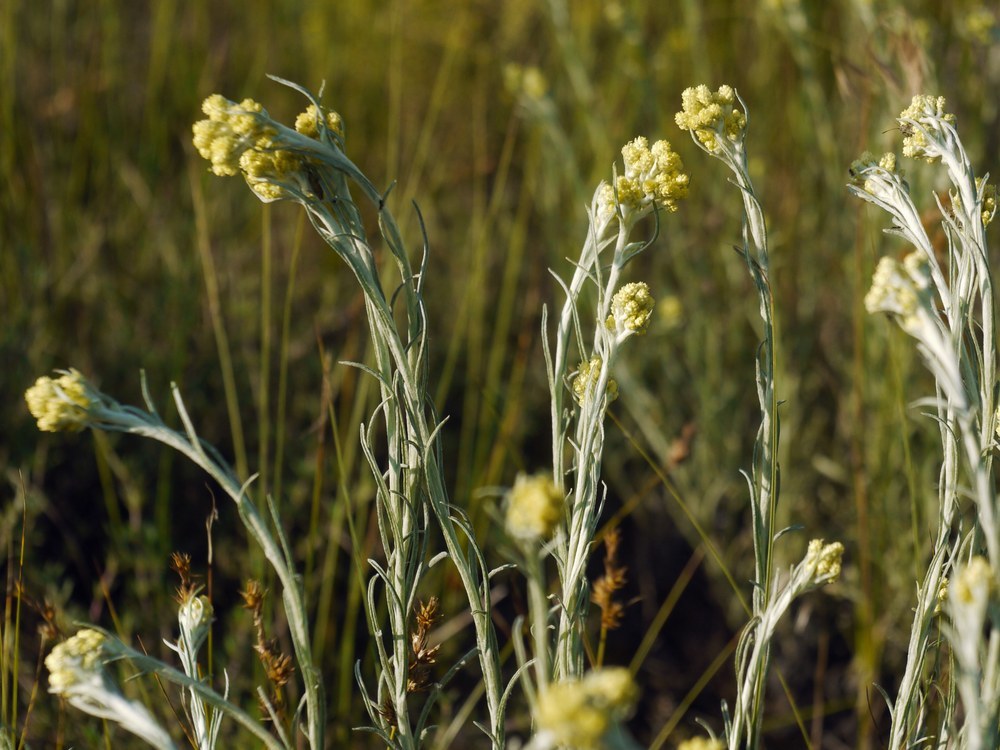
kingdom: Plantae
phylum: Tracheophyta
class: Magnoliopsida
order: Asterales
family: Asteraceae
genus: Helichrysum
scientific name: Helichrysum arenarium
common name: Strawflower
